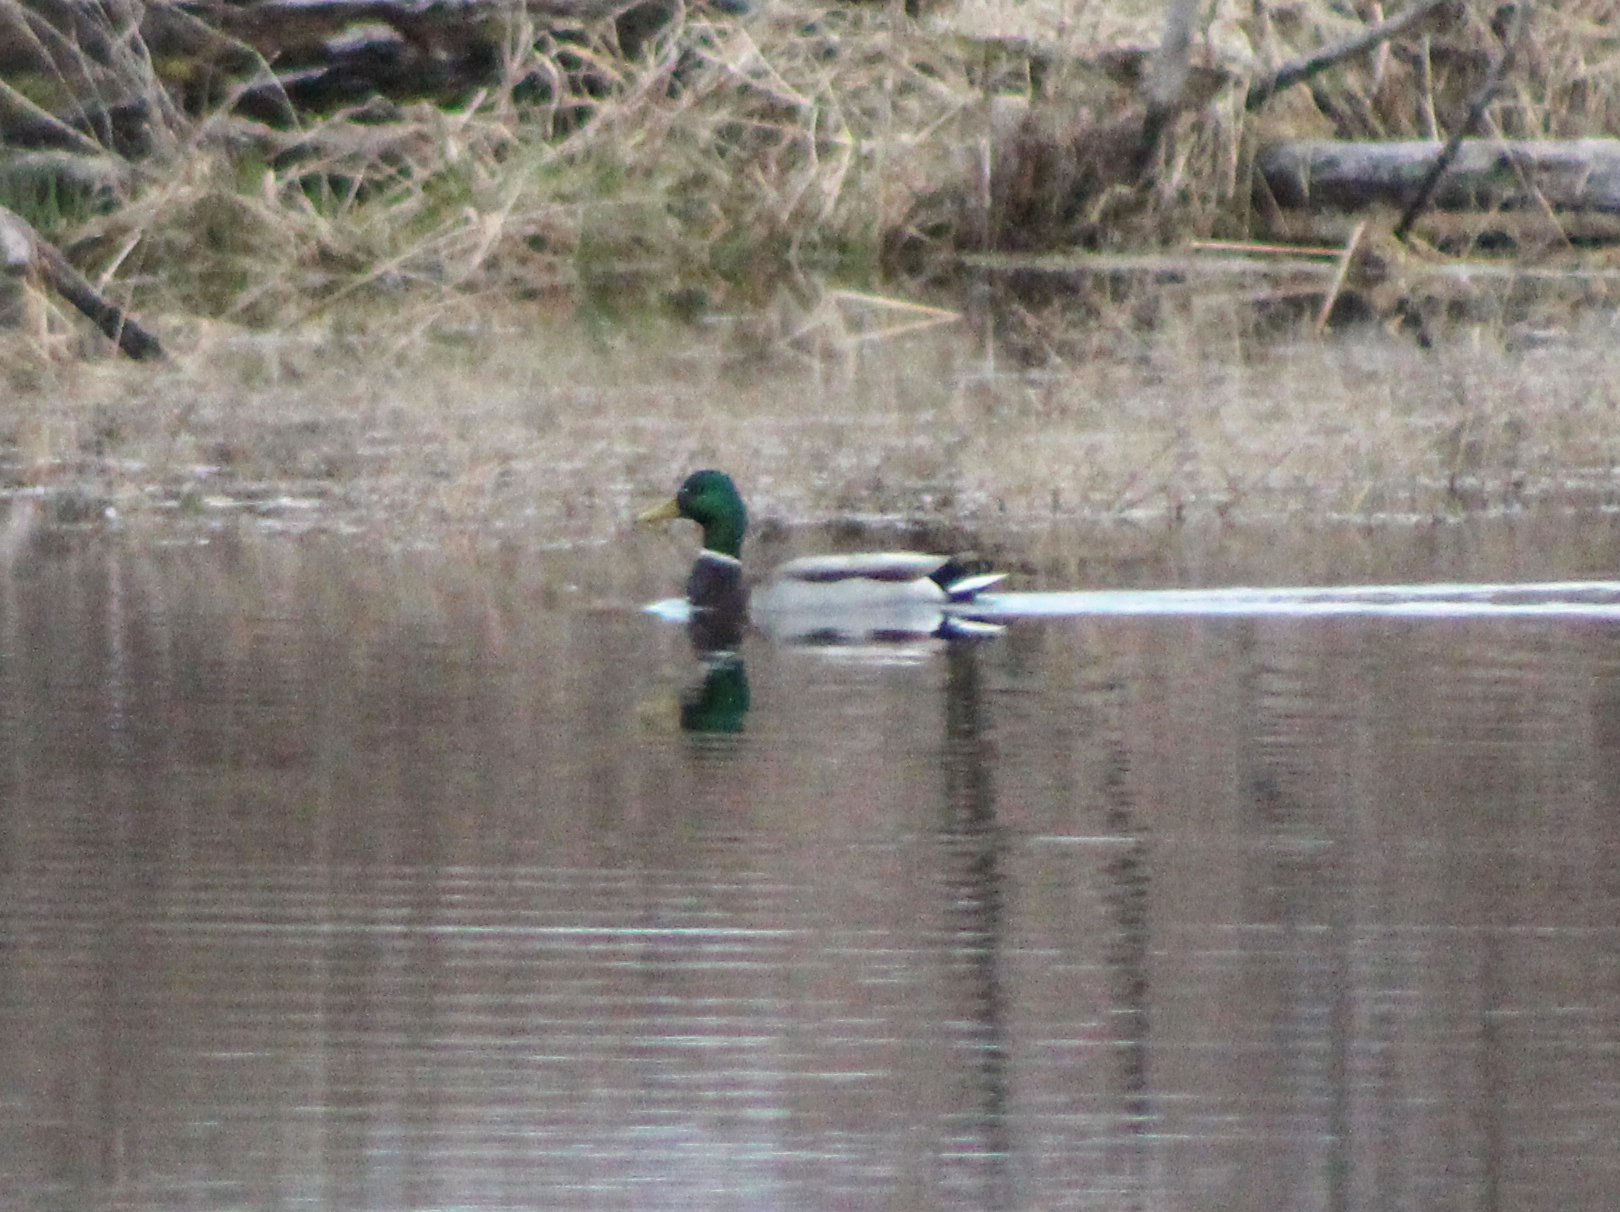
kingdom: Animalia
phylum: Chordata
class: Aves
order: Anseriformes
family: Anatidae
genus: Anas
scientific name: Anas platyrhynchos
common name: Mallard
